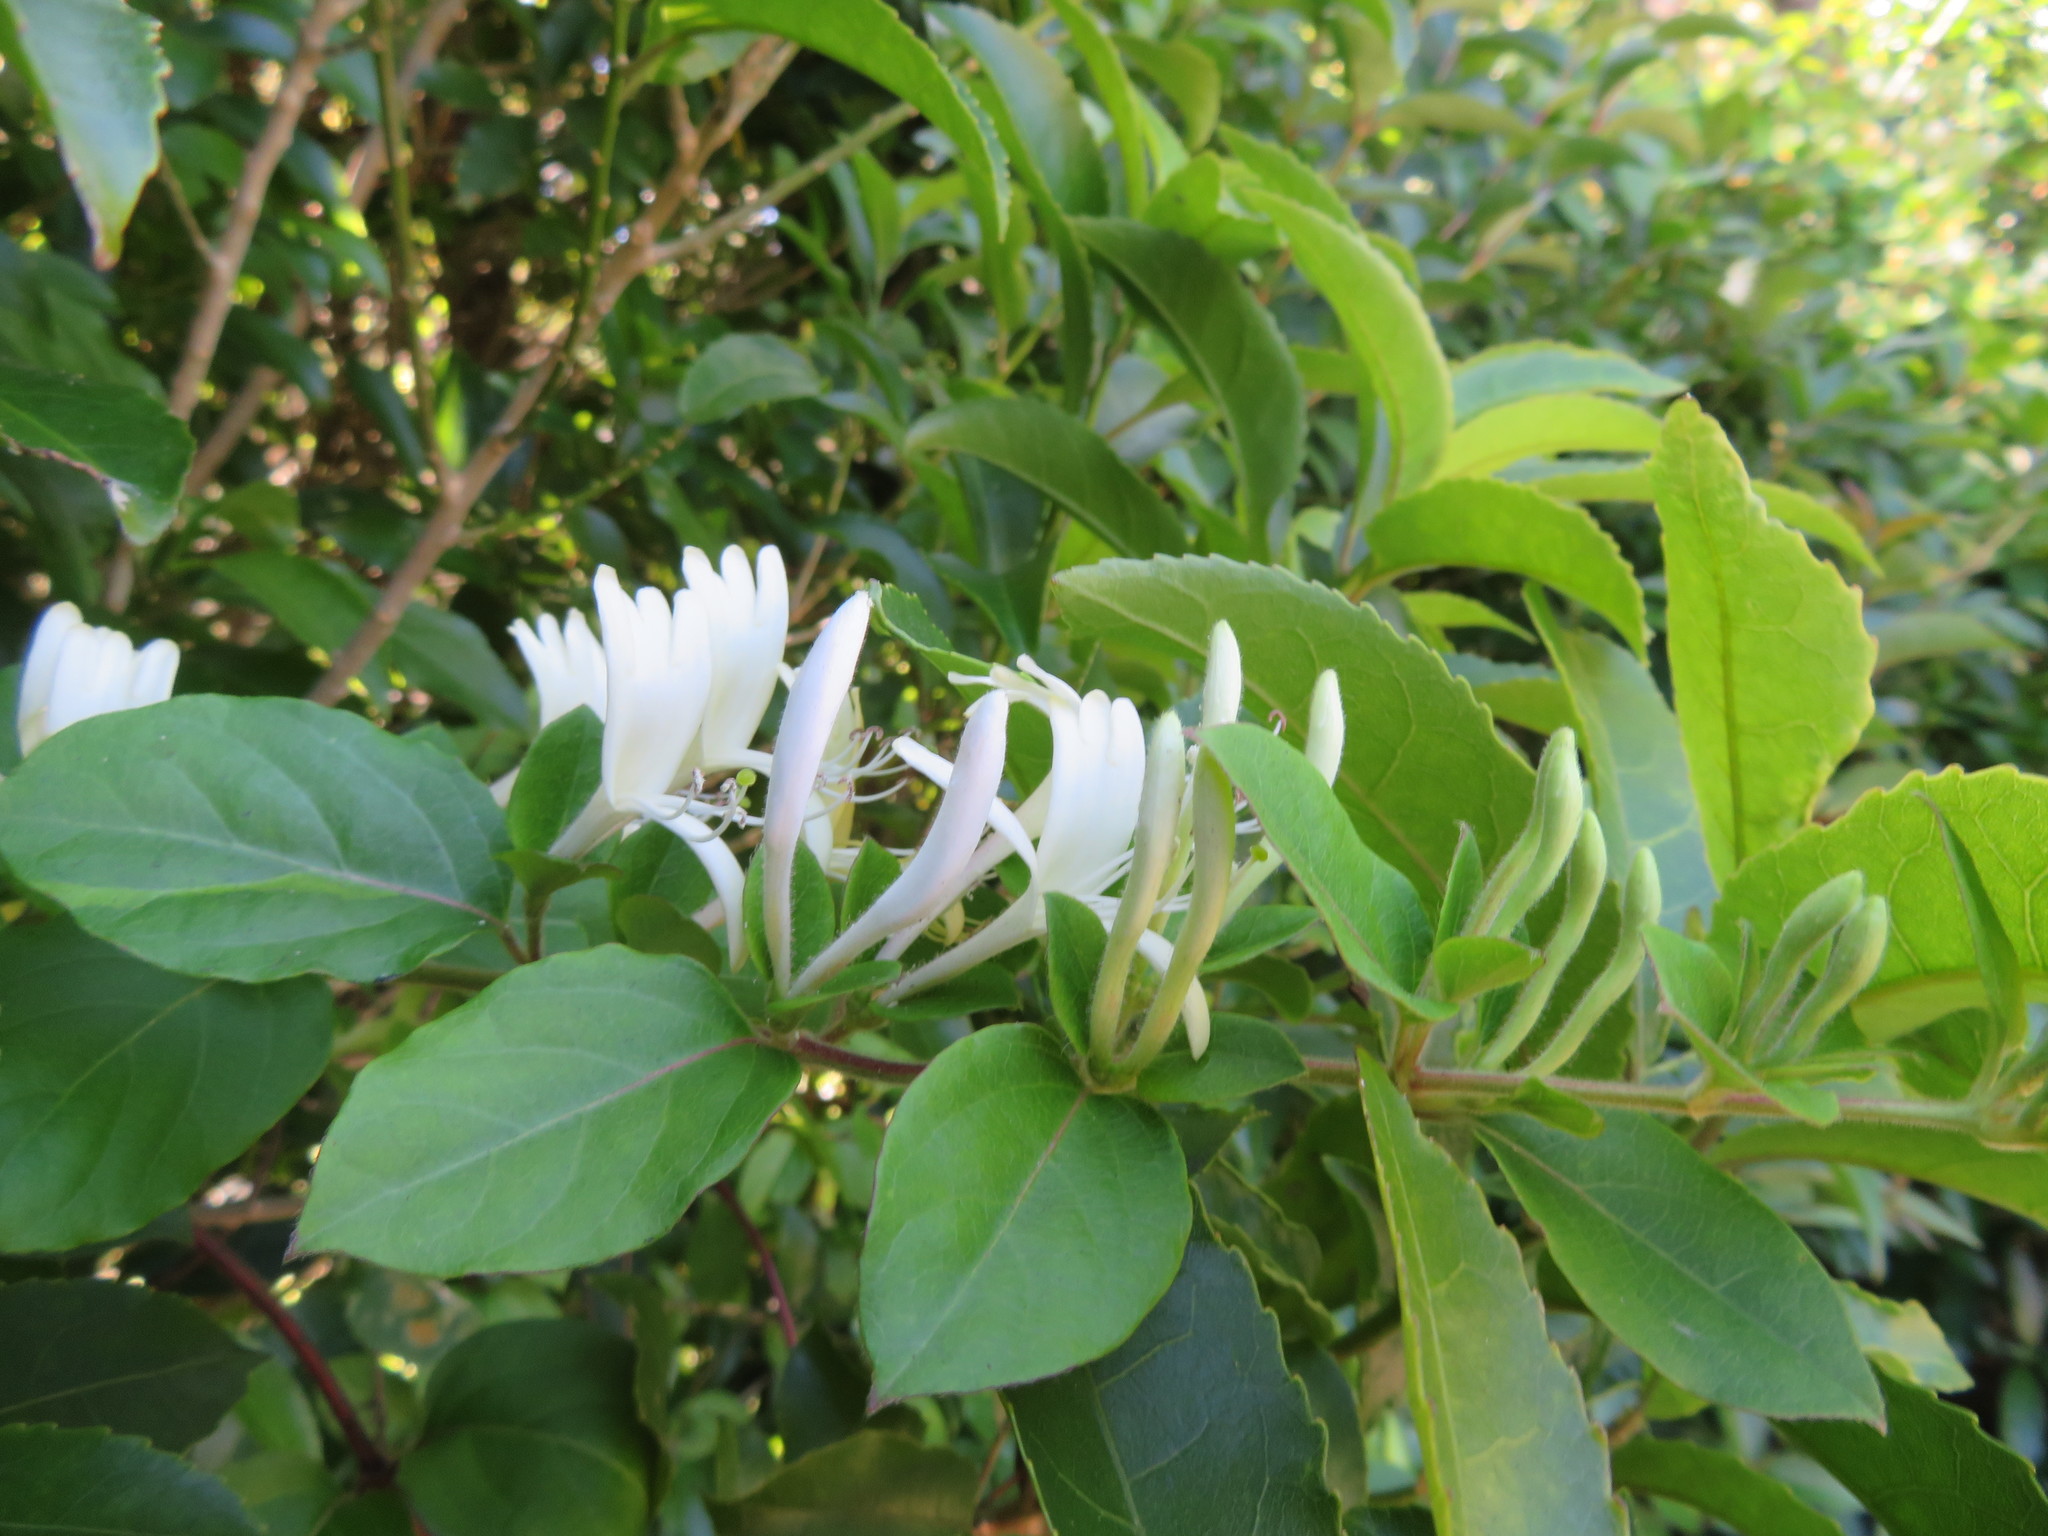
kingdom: Plantae
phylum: Tracheophyta
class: Magnoliopsida
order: Dipsacales
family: Caprifoliaceae
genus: Lonicera
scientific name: Lonicera japonica
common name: Japanese honeysuckle
